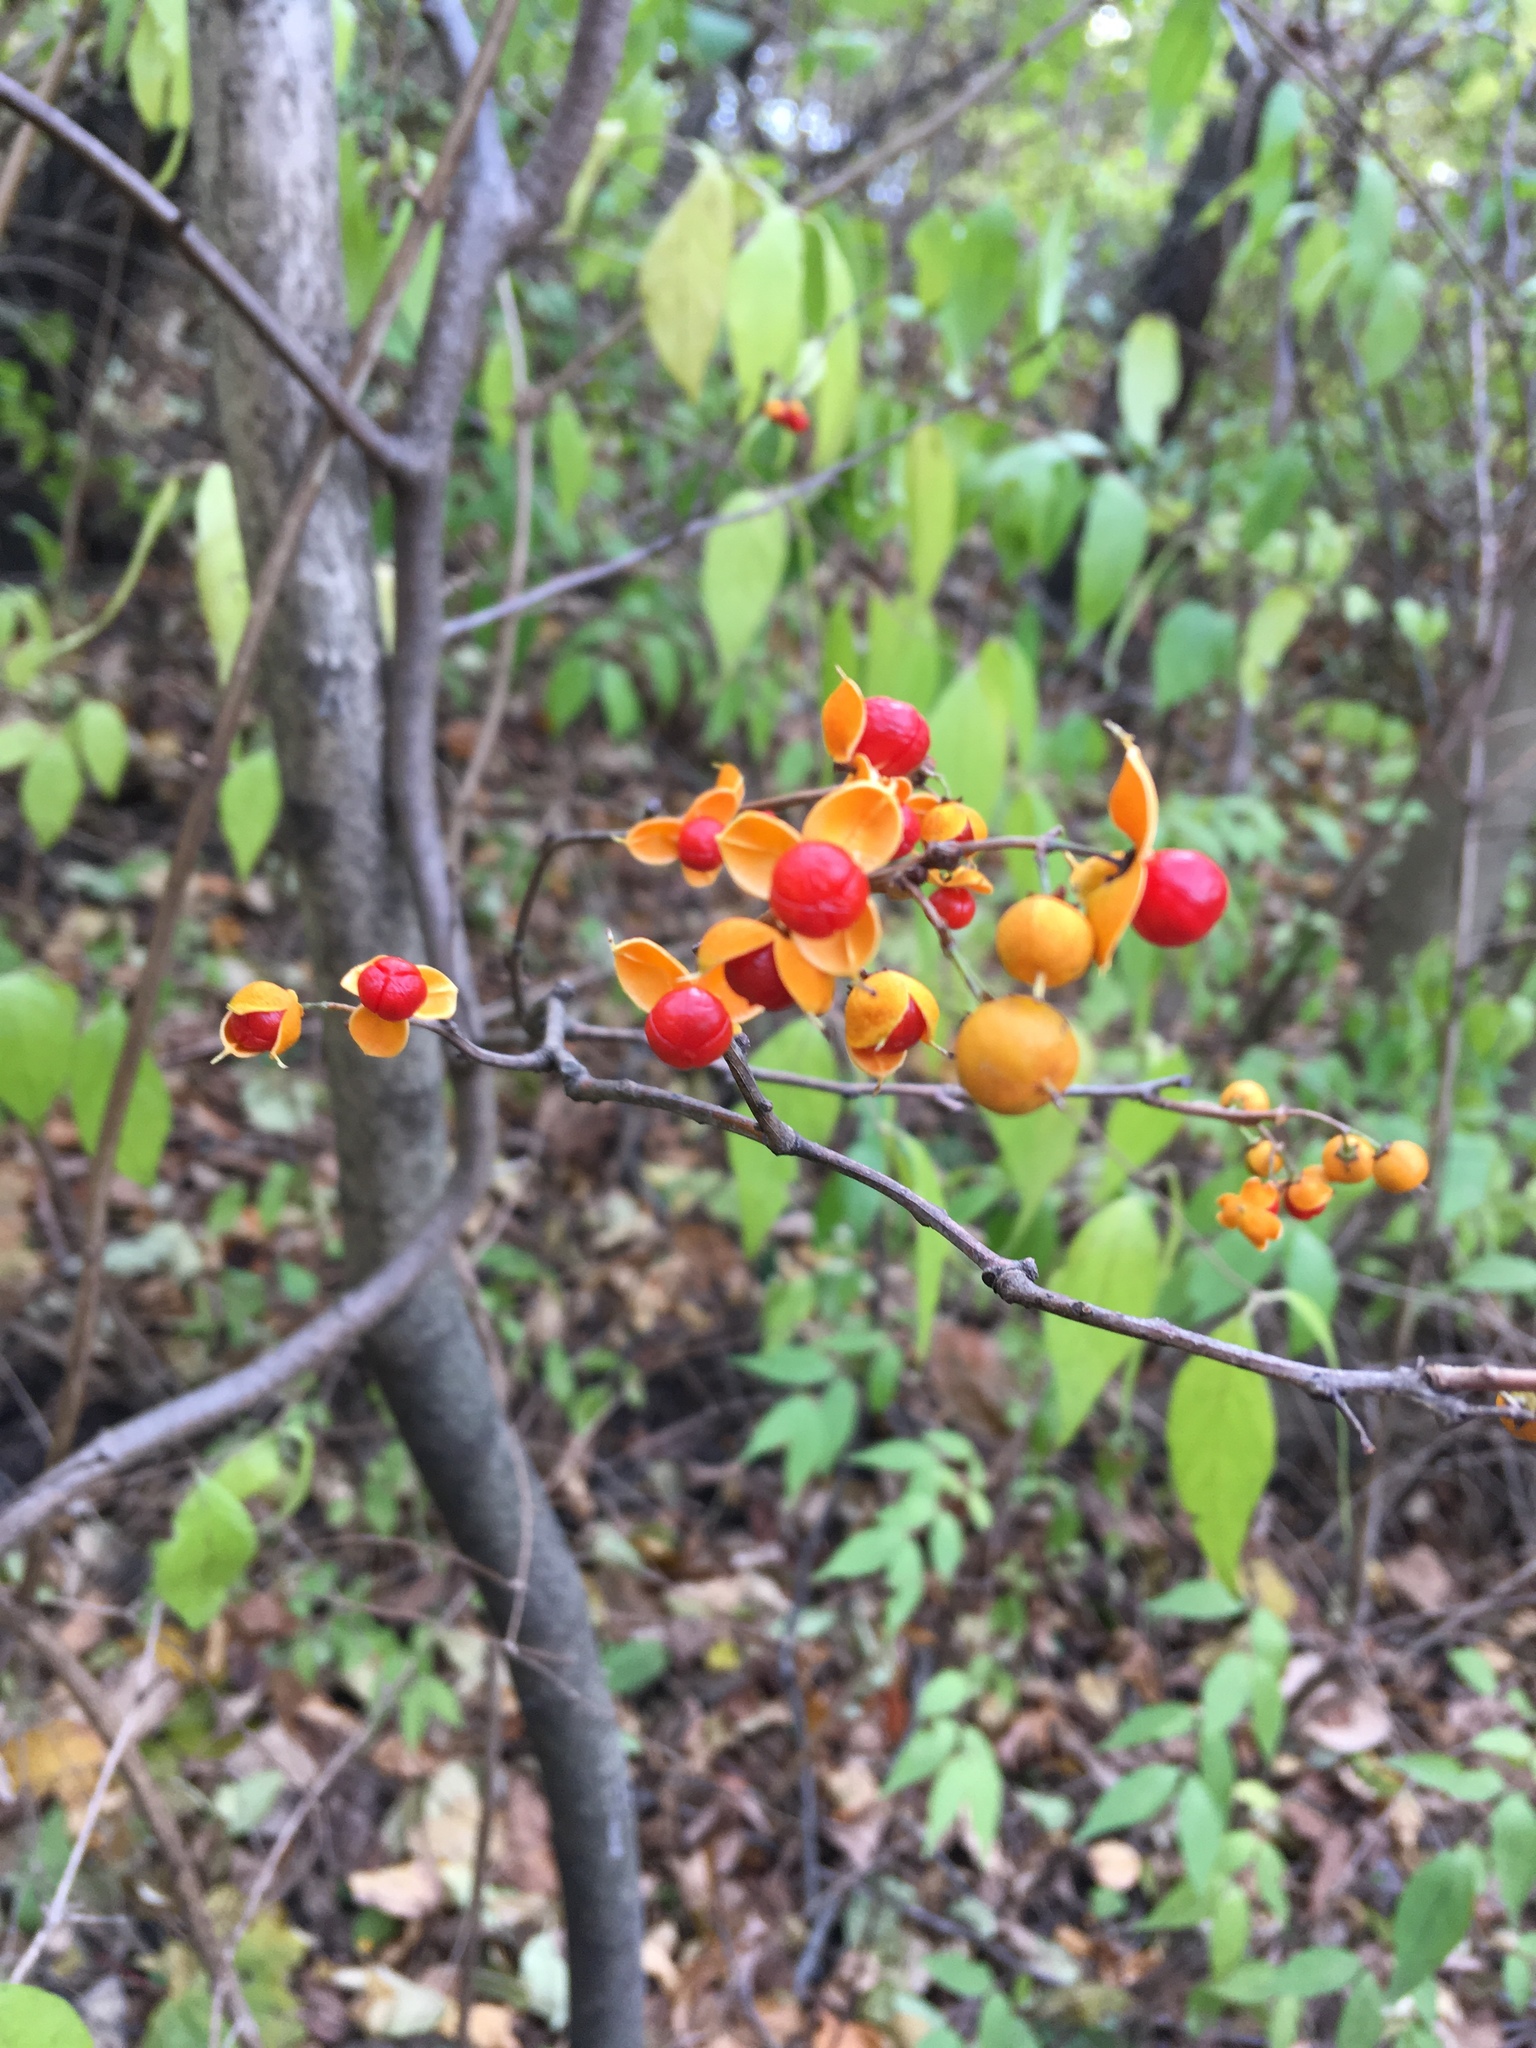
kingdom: Plantae
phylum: Tracheophyta
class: Magnoliopsida
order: Celastrales
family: Celastraceae
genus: Celastrus
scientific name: Celastrus orbiculatus
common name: Oriental bittersweet
